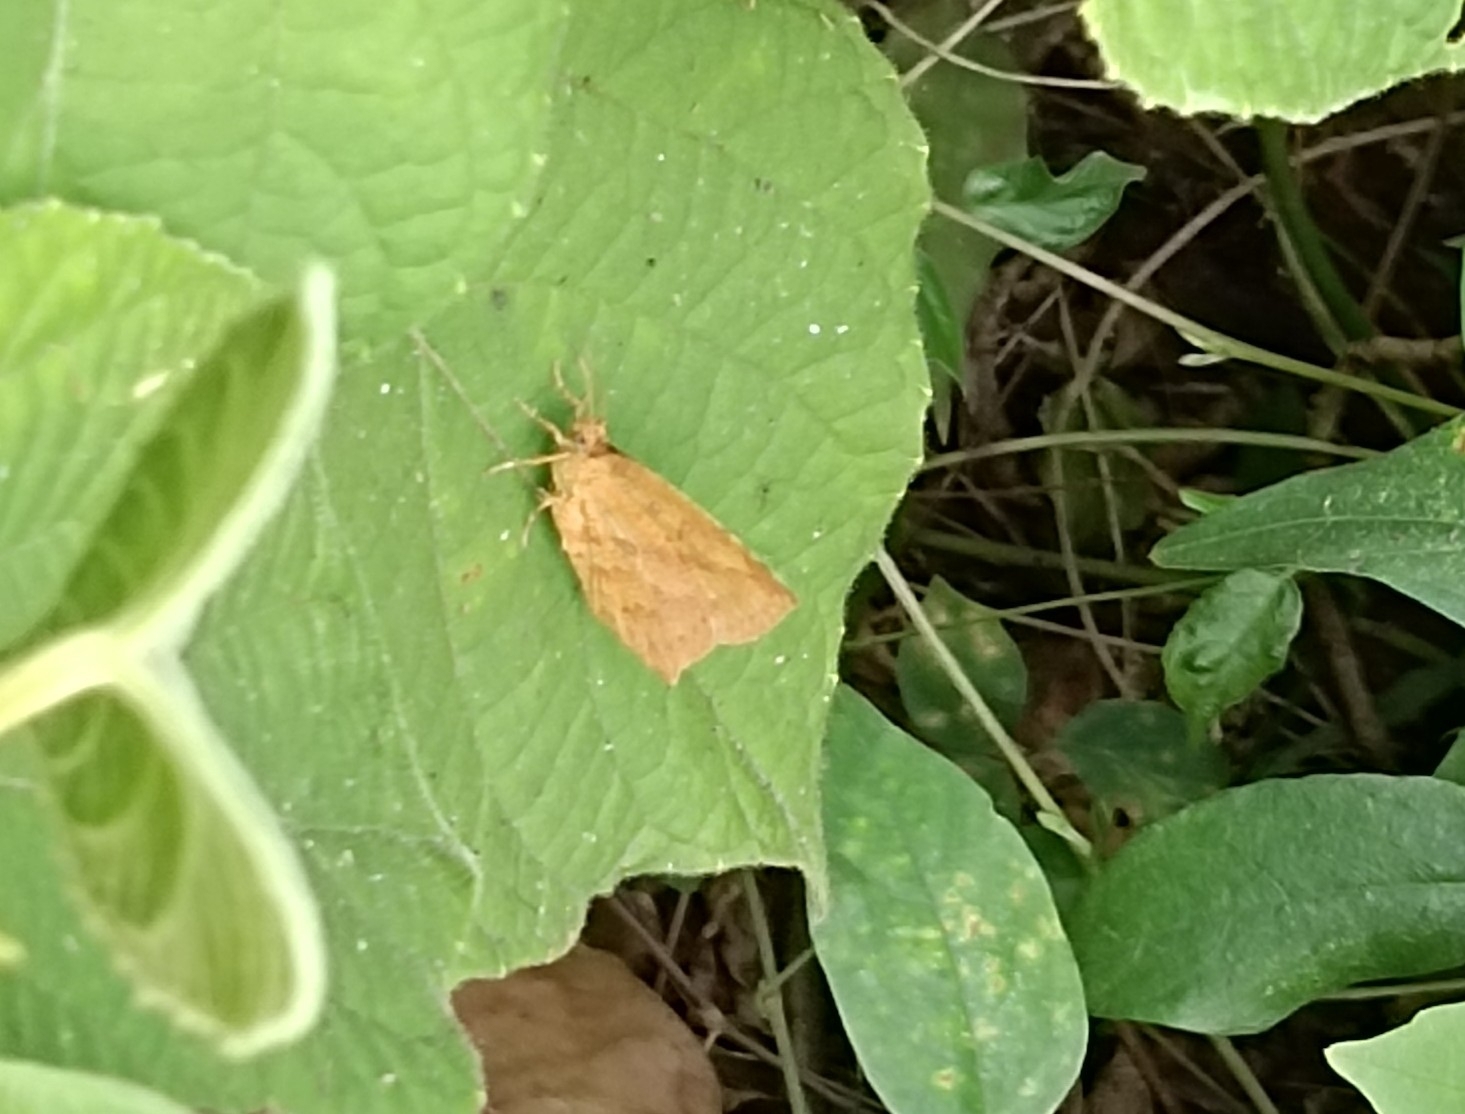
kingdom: Animalia
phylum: Arthropoda
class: Insecta
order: Lepidoptera
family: Callidulidae
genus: Tetragonus
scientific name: Tetragonus catamitus
